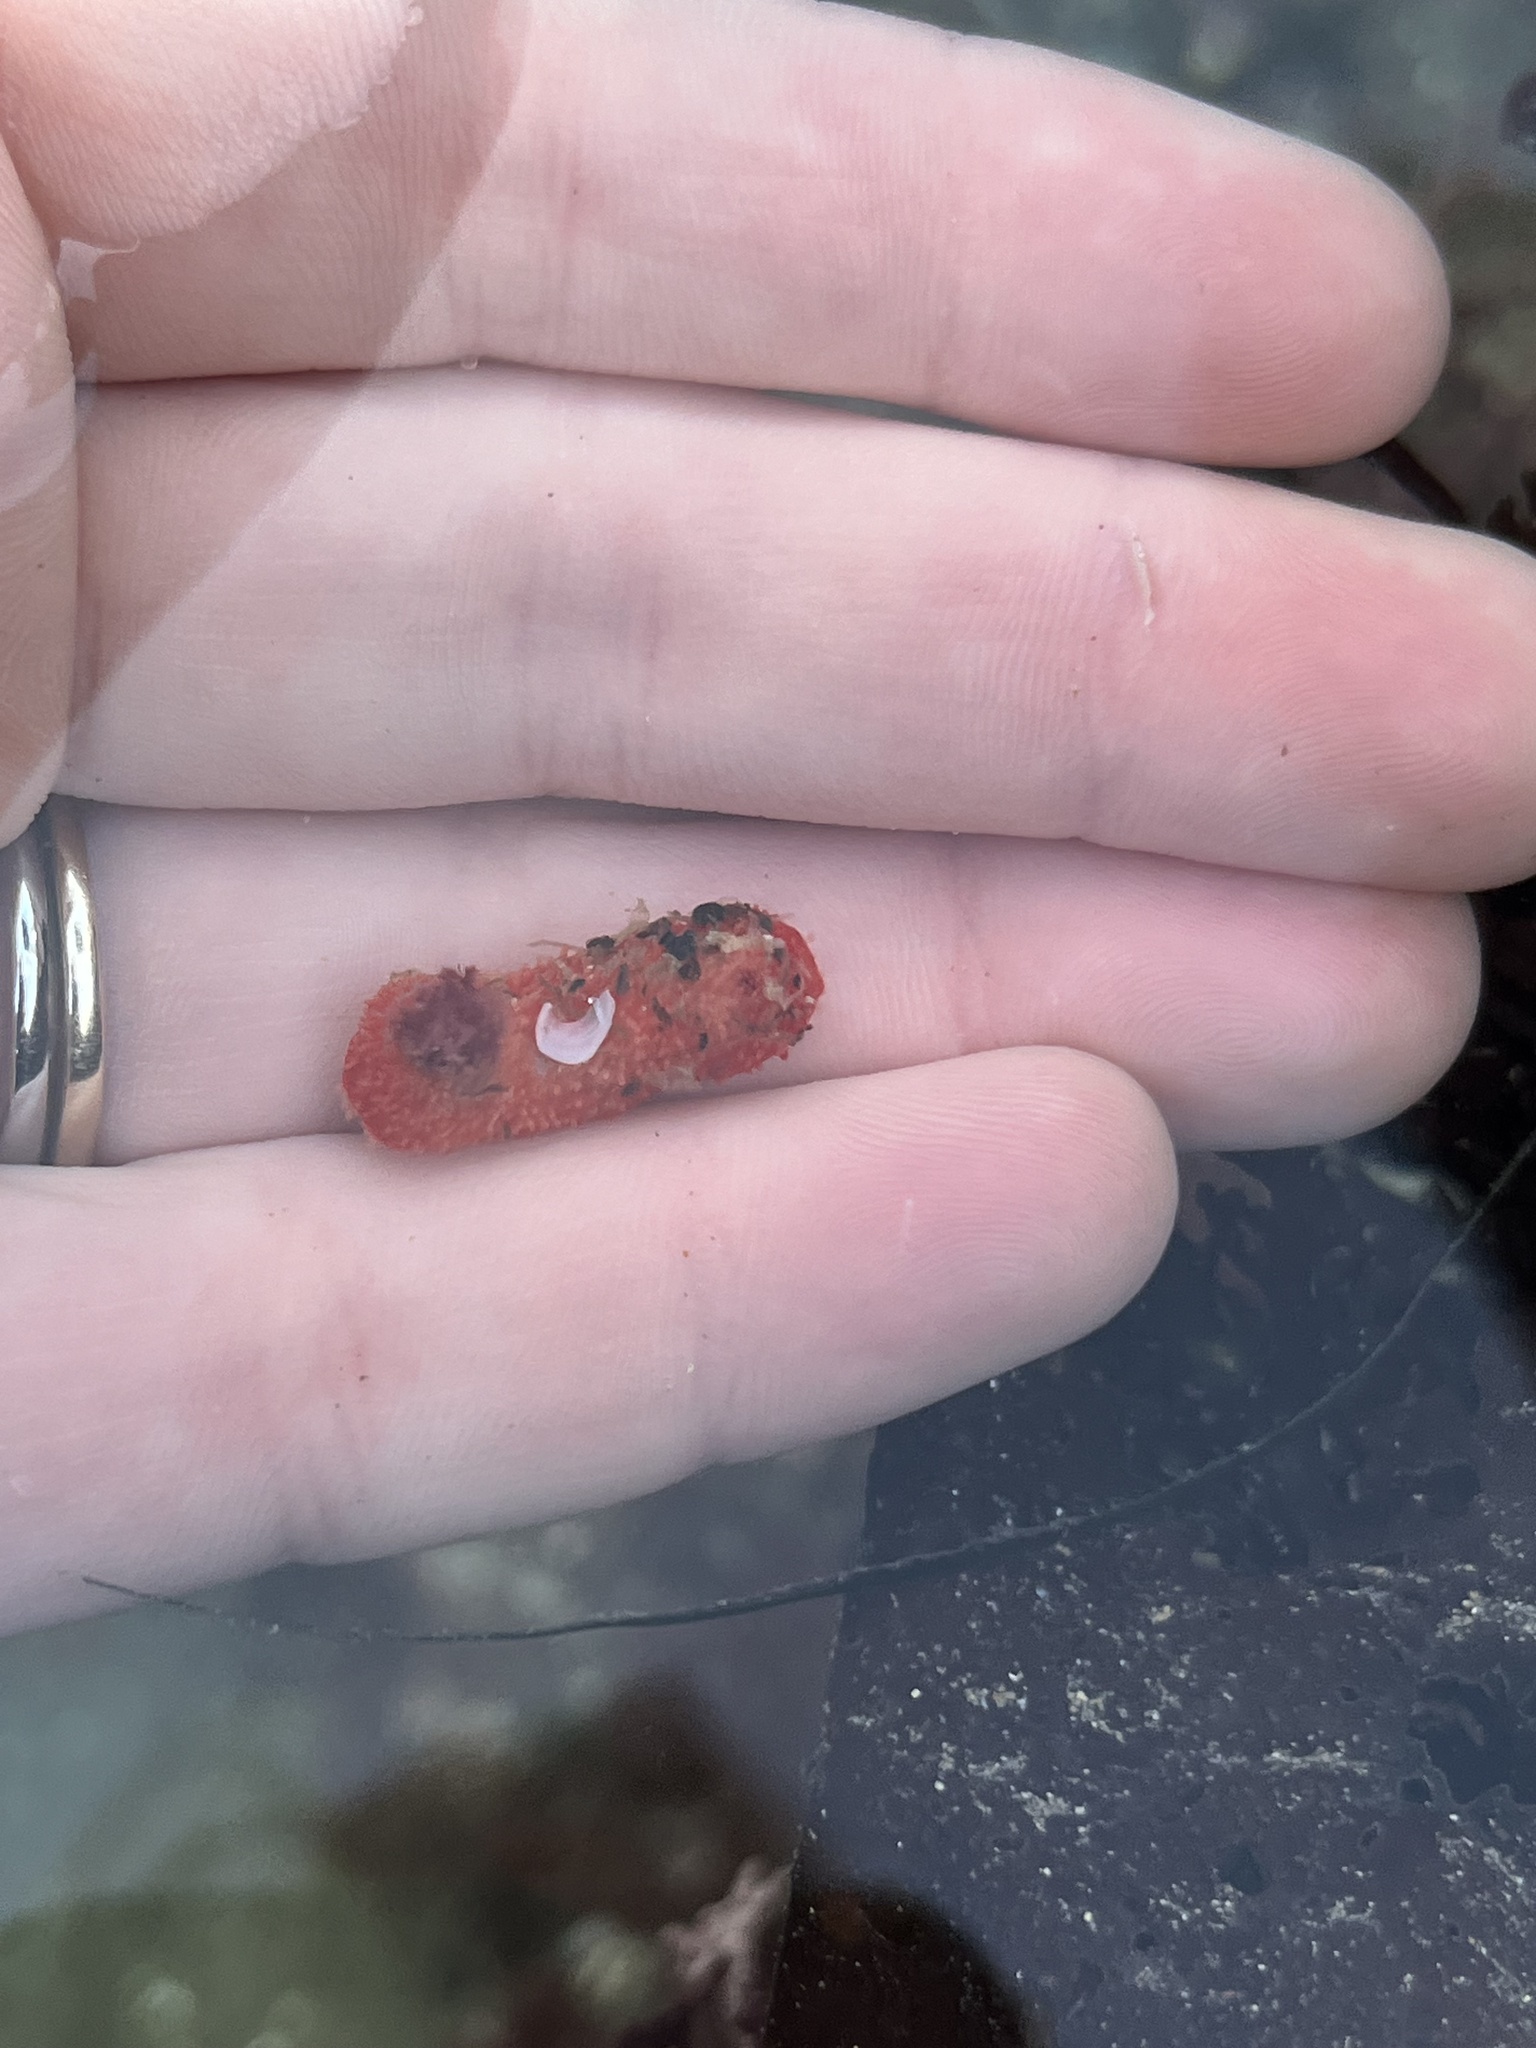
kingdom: Animalia
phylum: Echinodermata
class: Holothuroidea
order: Dendrochirotida
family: Psolidae
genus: Lissothuria
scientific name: Lissothuria nutriens
